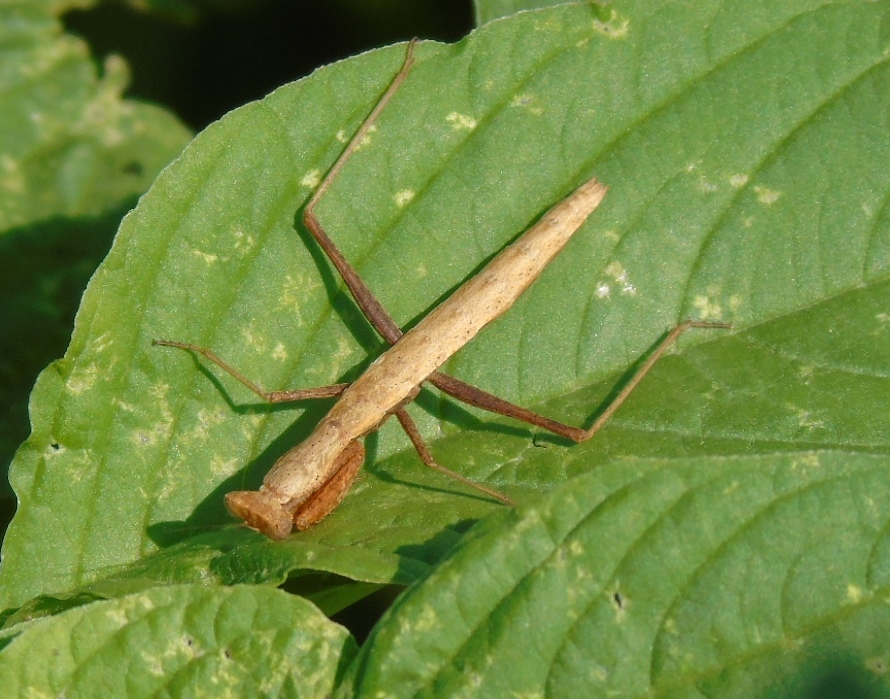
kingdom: Animalia
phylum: Arthropoda
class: Insecta
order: Mantodea
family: Amelidae
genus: Yersinia
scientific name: Yersinia mexicana
